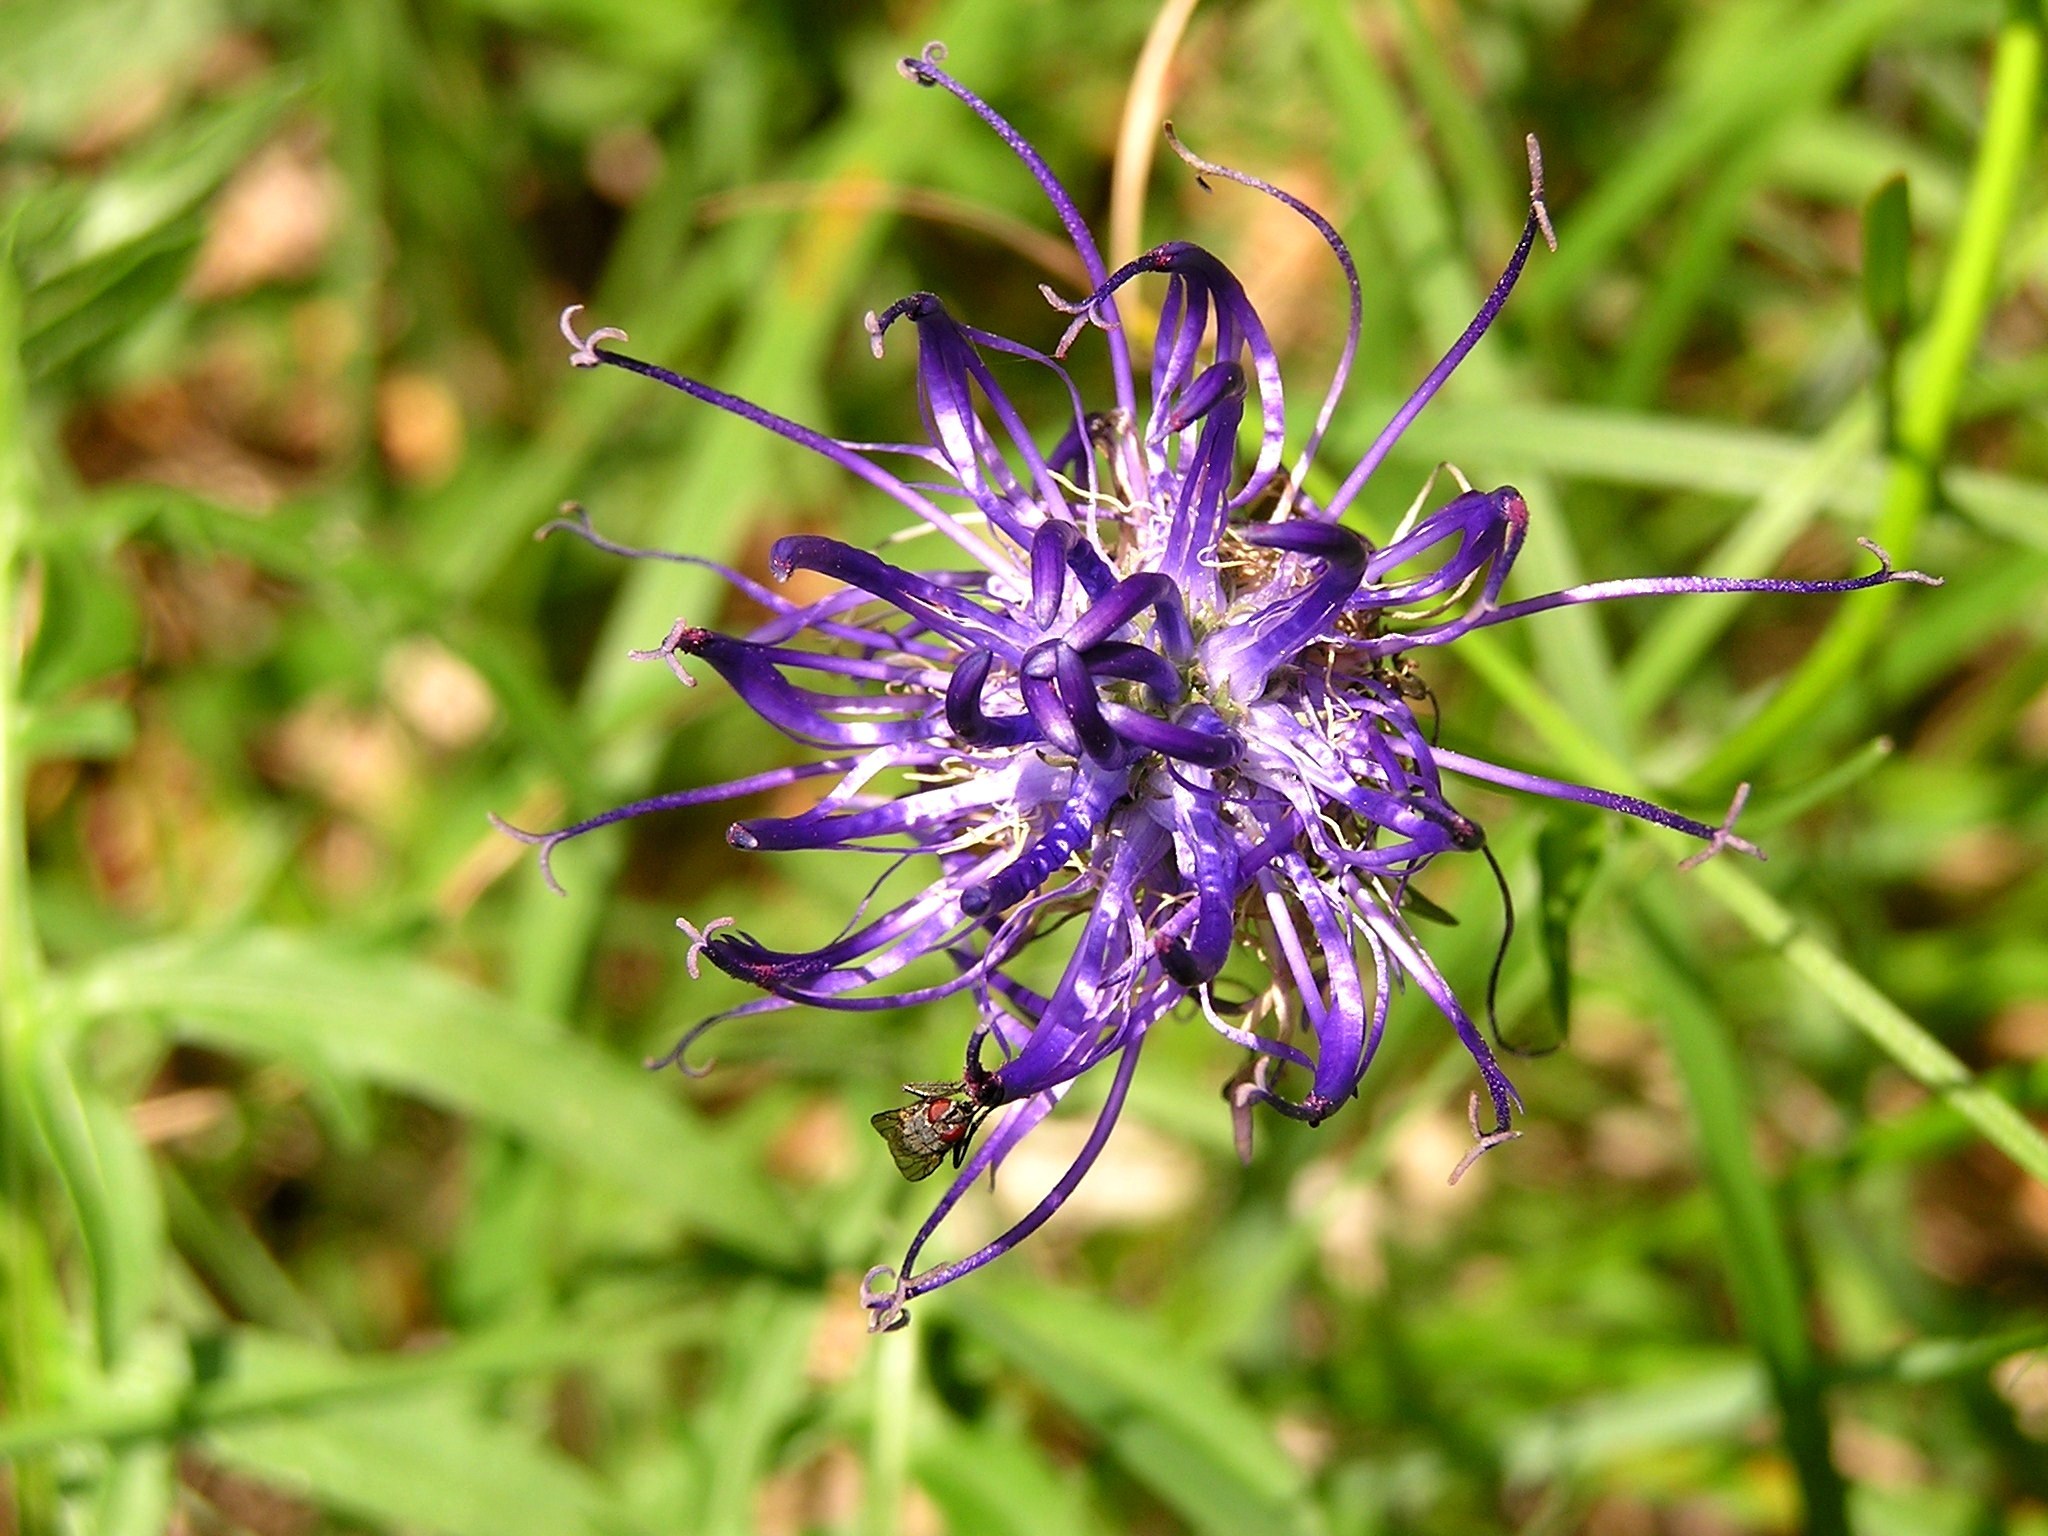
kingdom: Plantae
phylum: Tracheophyta
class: Magnoliopsida
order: Asterales
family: Campanulaceae
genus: Phyteuma
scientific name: Phyteuma orbiculare
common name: Round-headed rampion
